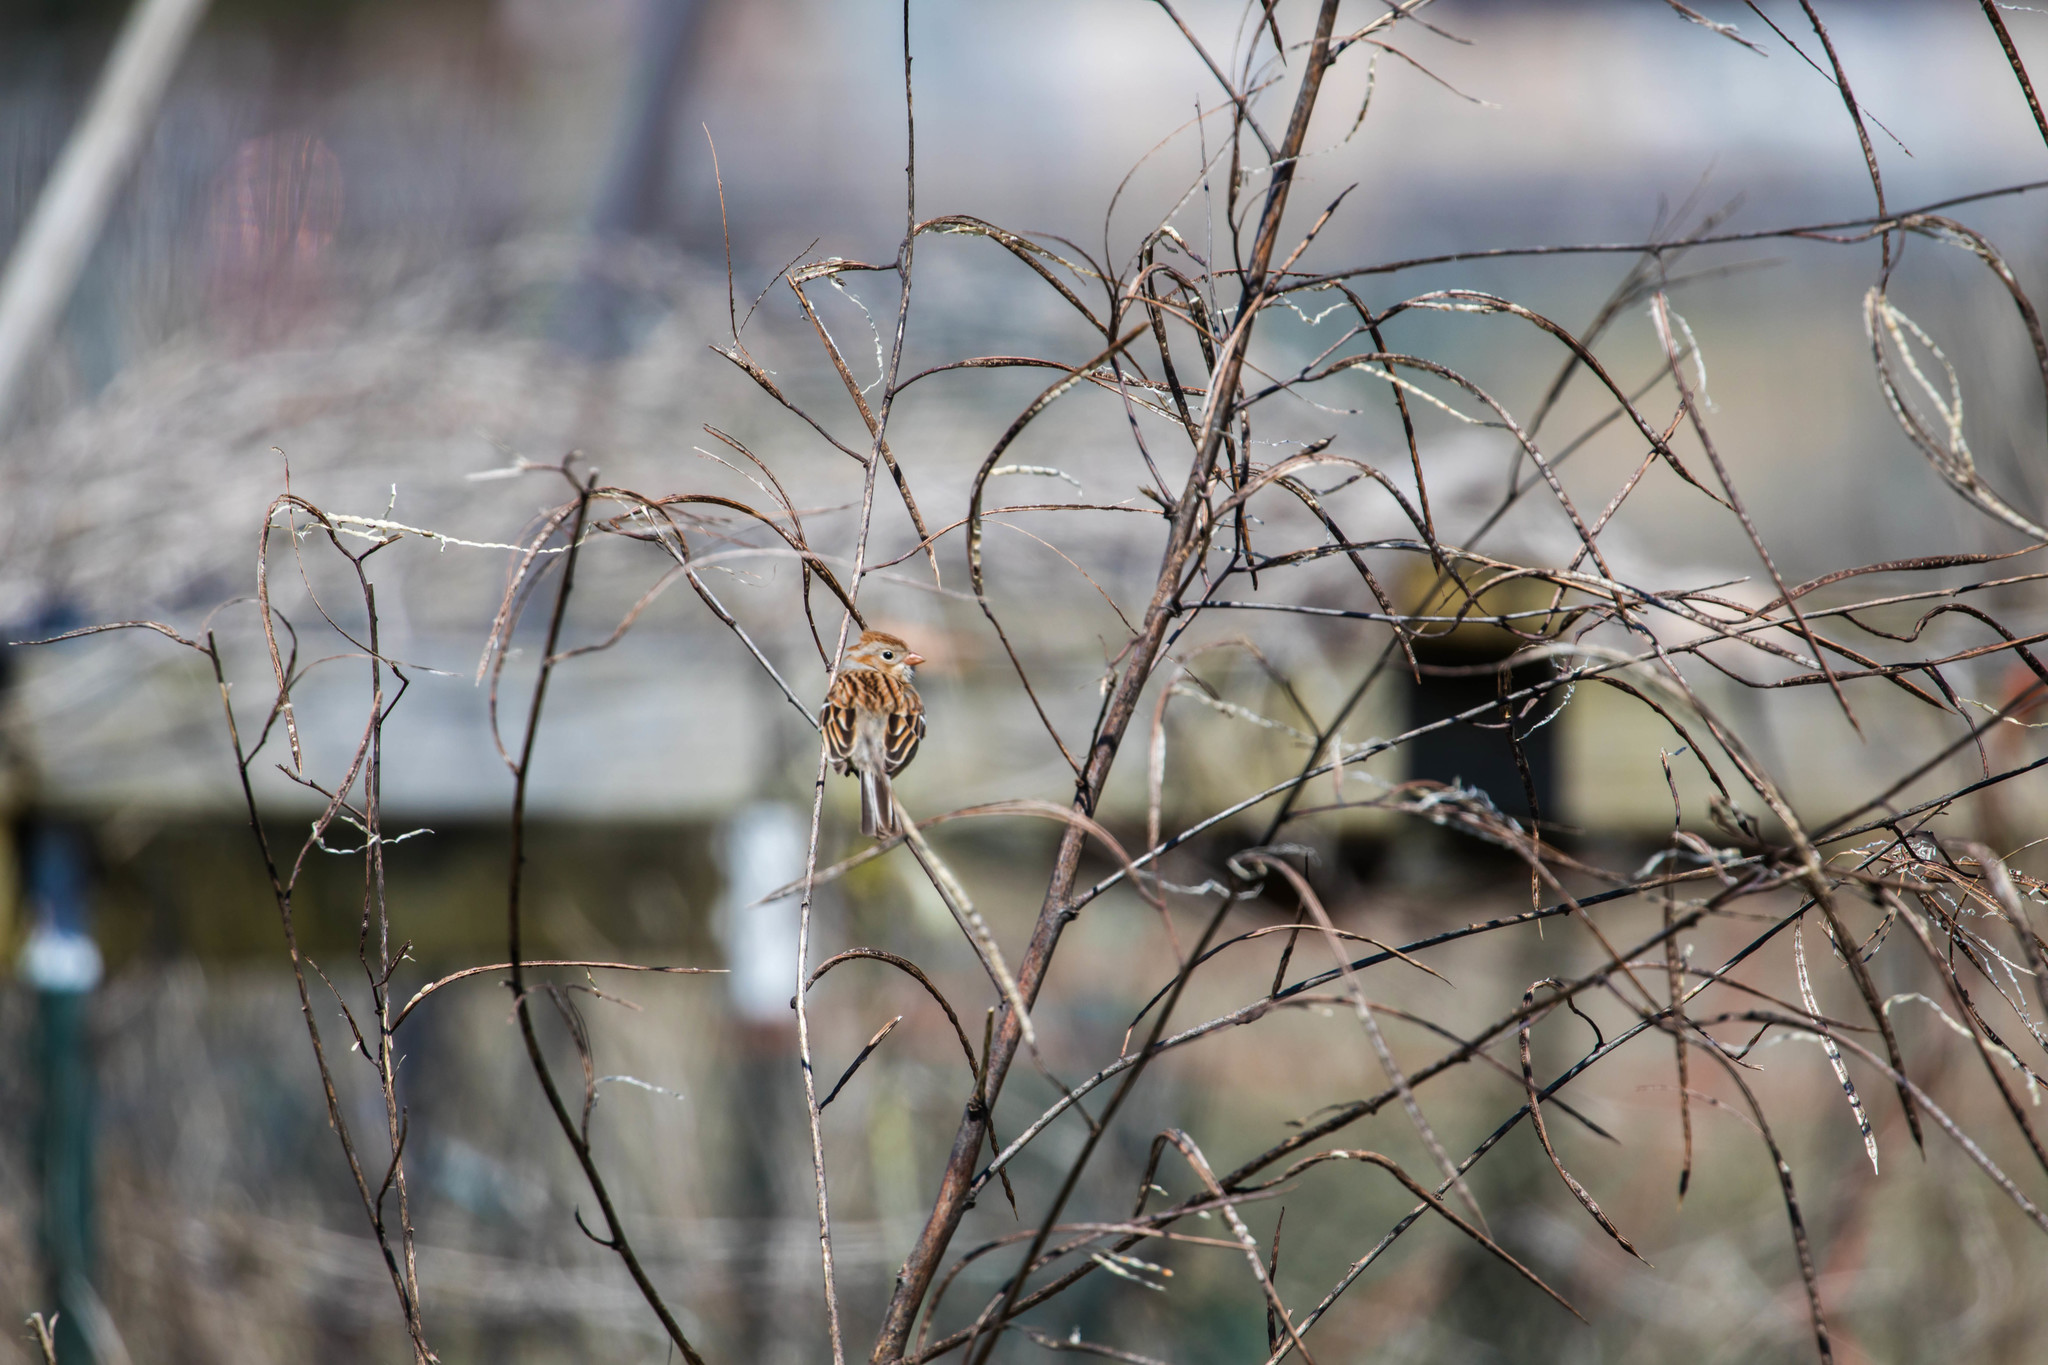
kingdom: Animalia
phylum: Chordata
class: Aves
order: Passeriformes
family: Passerellidae
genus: Spizella
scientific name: Spizella pusilla
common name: Field sparrow
